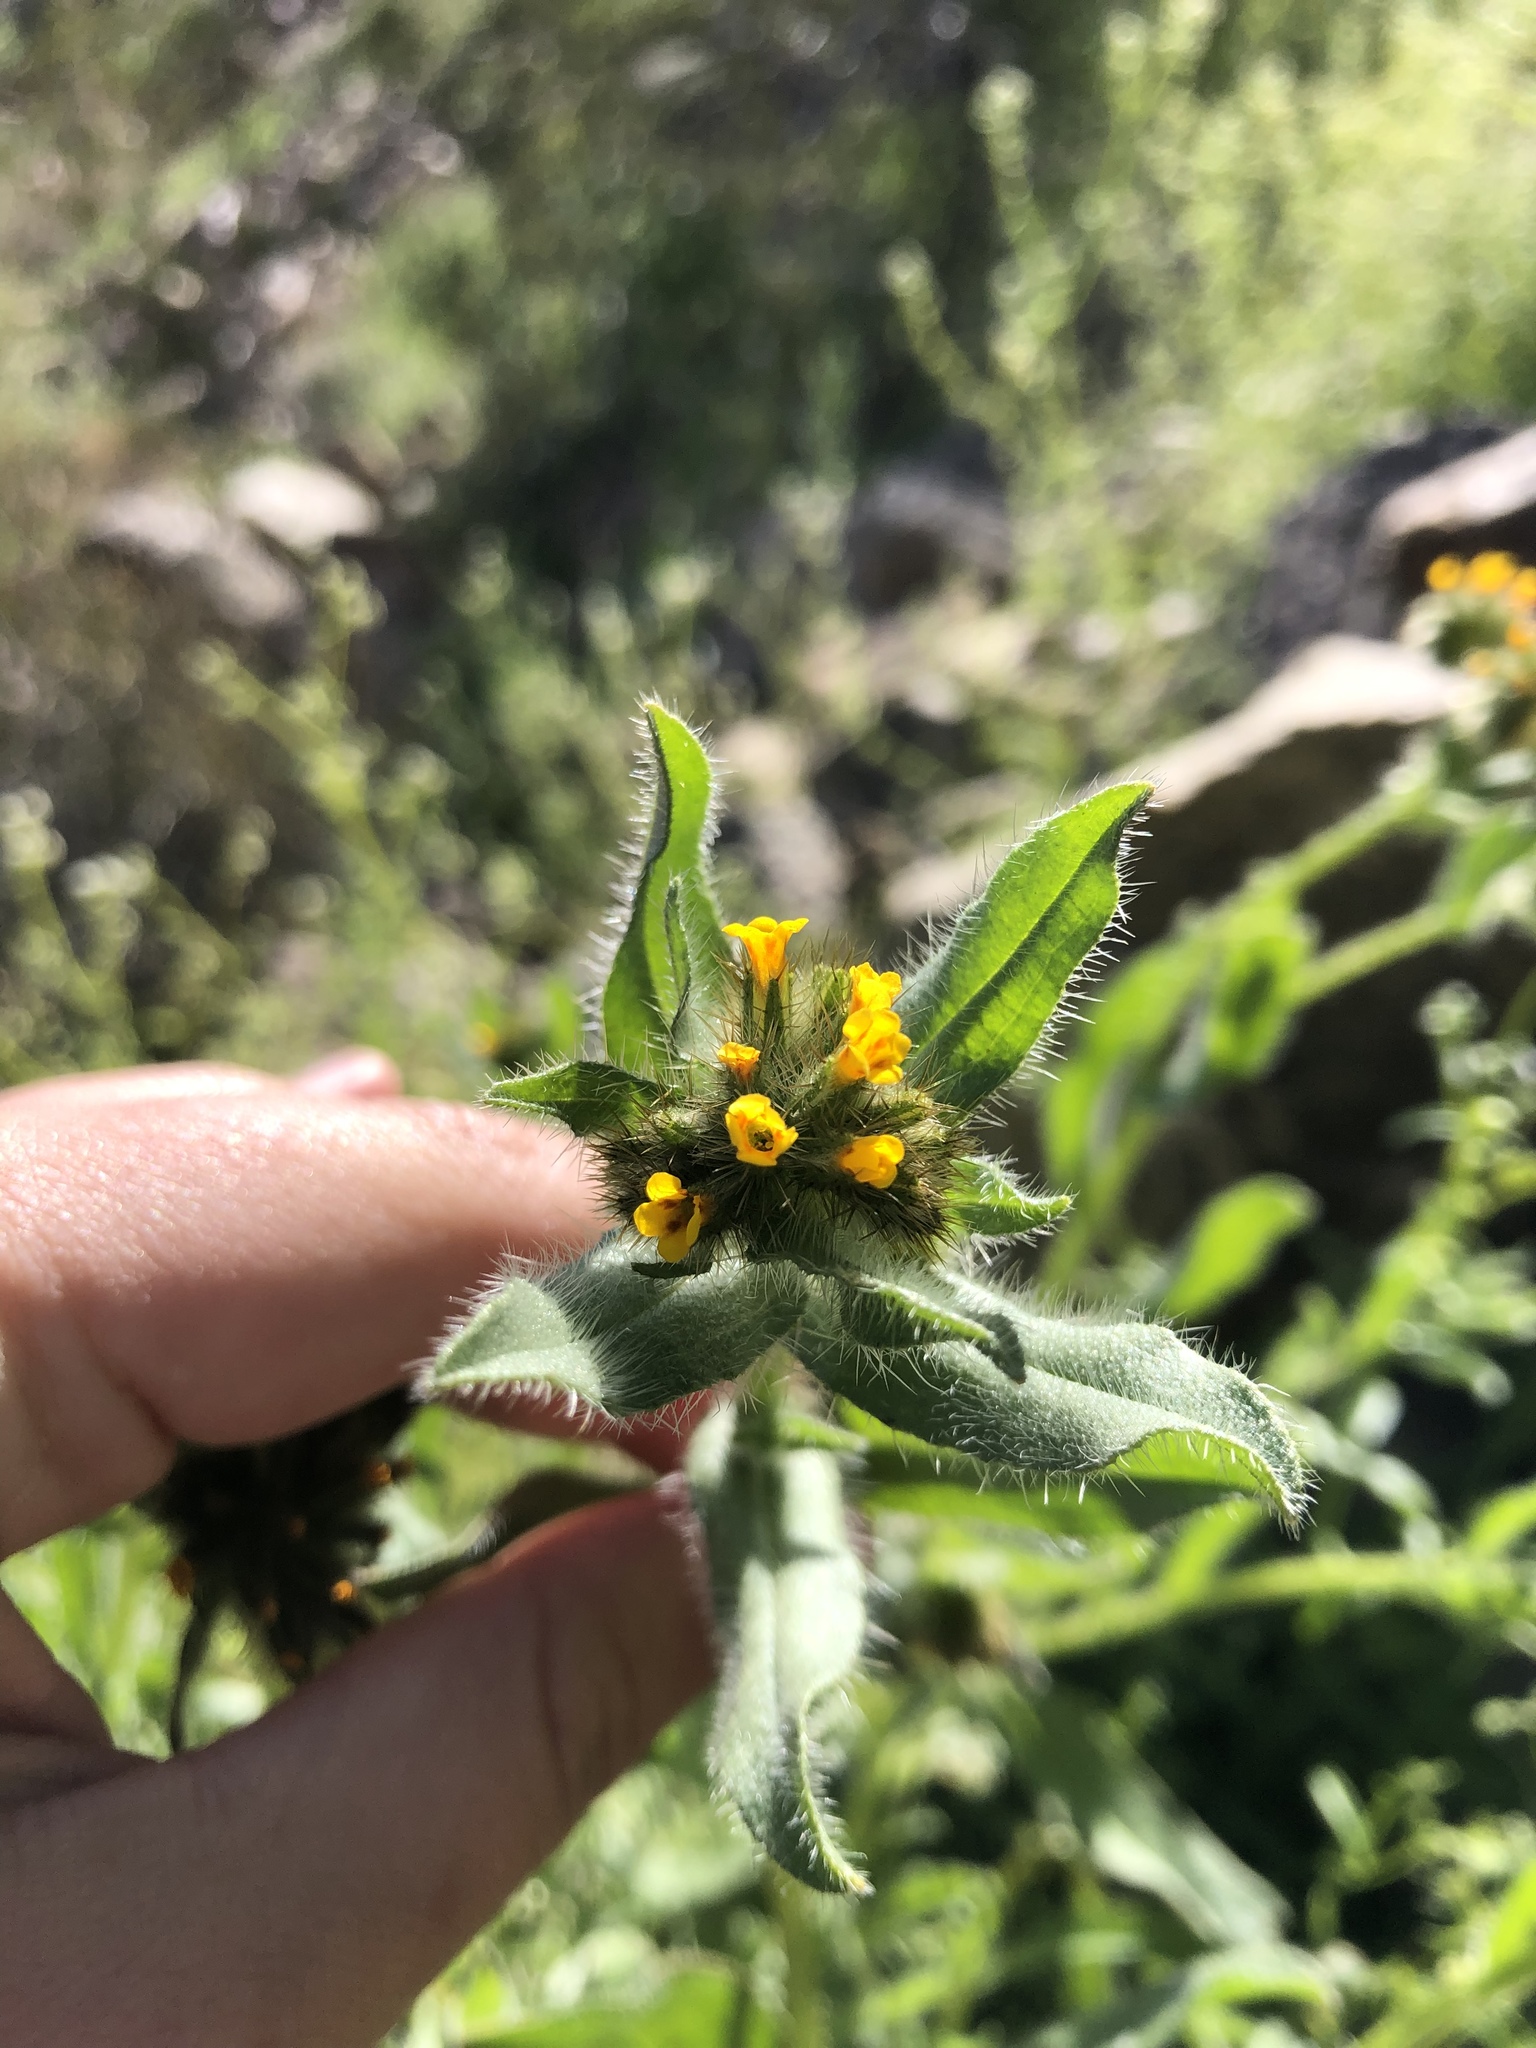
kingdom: Plantae
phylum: Tracheophyta
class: Magnoliopsida
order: Boraginales
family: Boraginaceae
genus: Amsinckia
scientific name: Amsinckia tessellata
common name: Tessellate fiddleneck
